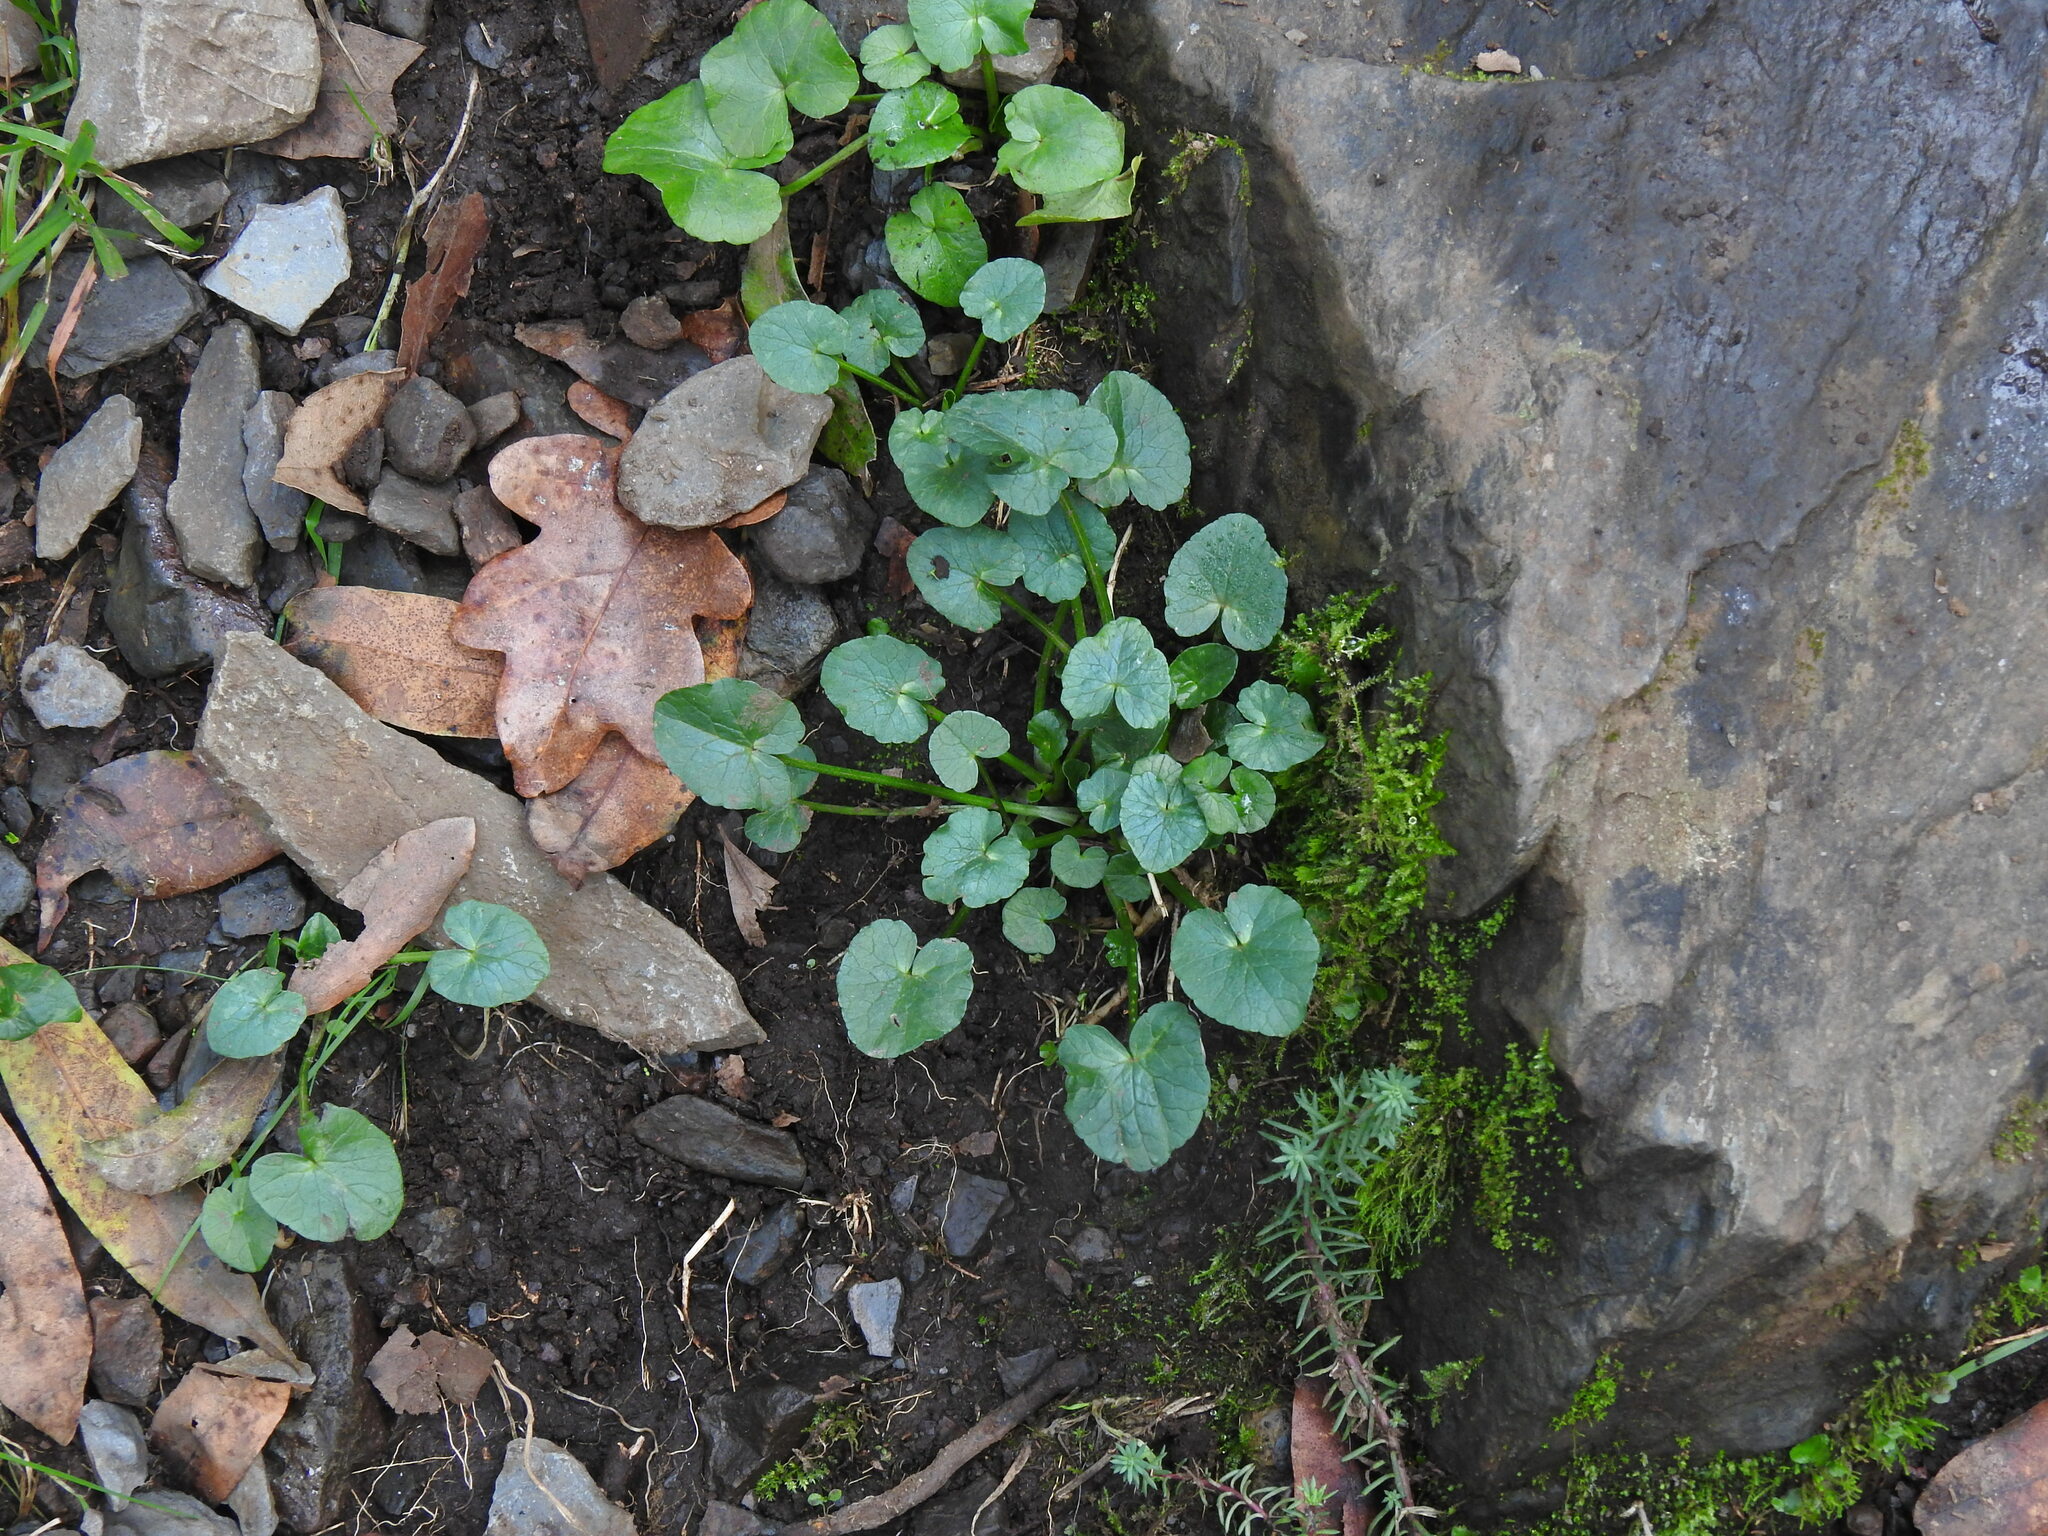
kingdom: Plantae
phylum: Tracheophyta
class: Magnoliopsida
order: Ranunculales
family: Ranunculaceae
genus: Ficaria
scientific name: Ficaria verna
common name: Lesser celandine
